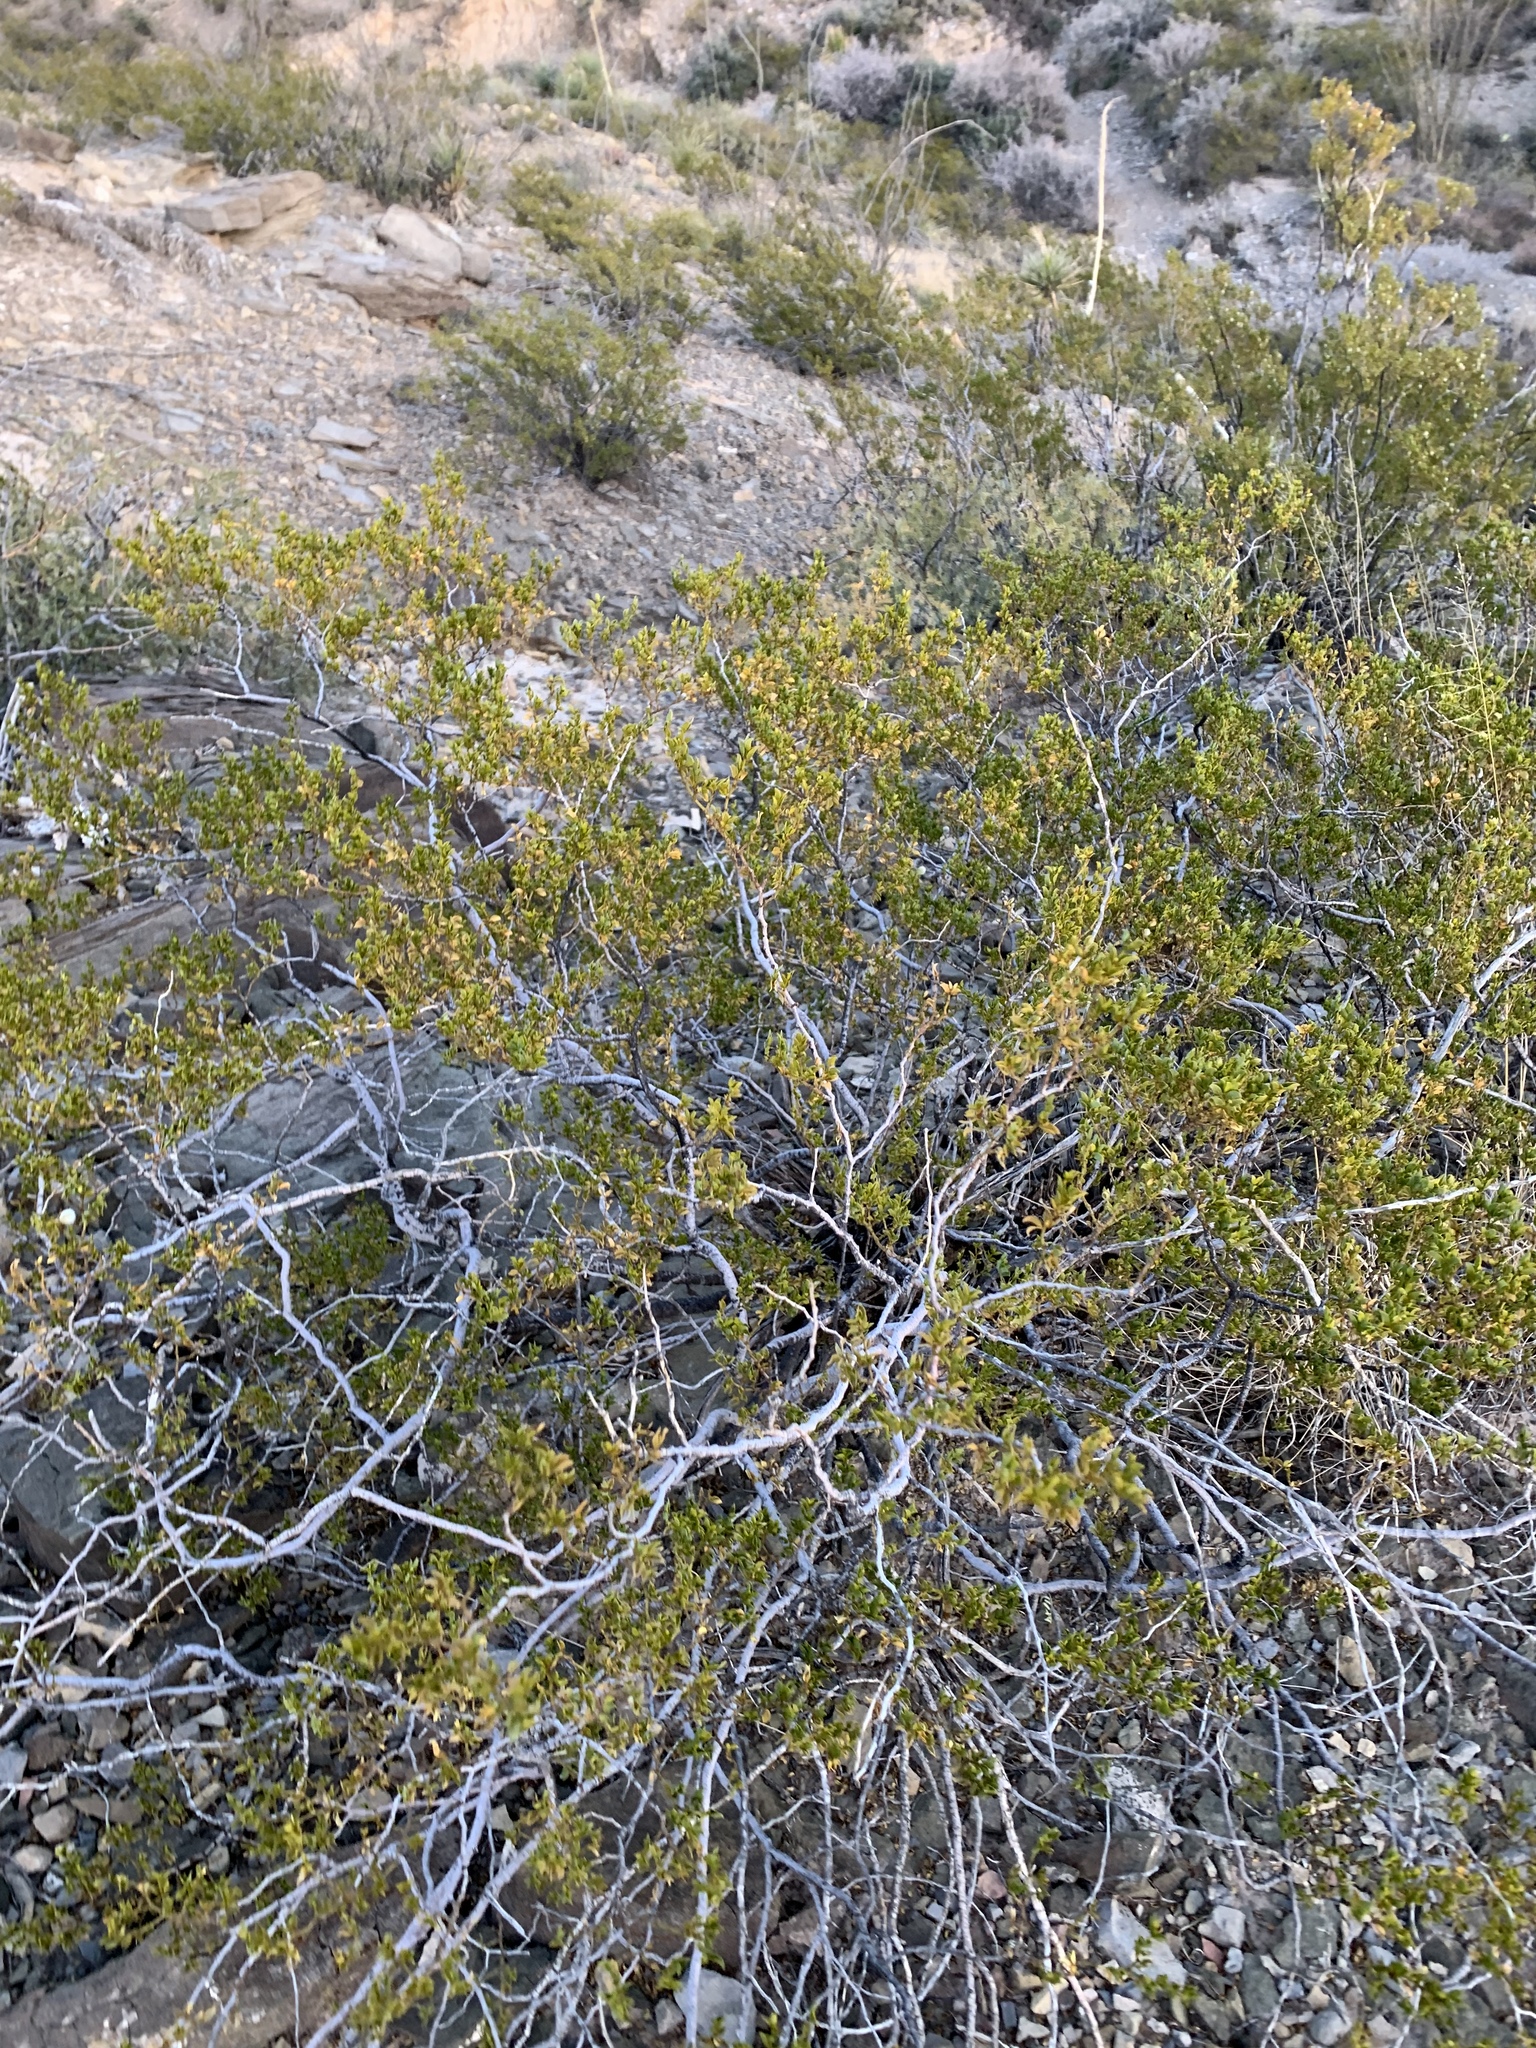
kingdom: Plantae
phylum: Tracheophyta
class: Magnoliopsida
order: Zygophyllales
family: Zygophyllaceae
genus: Larrea
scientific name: Larrea tridentata
